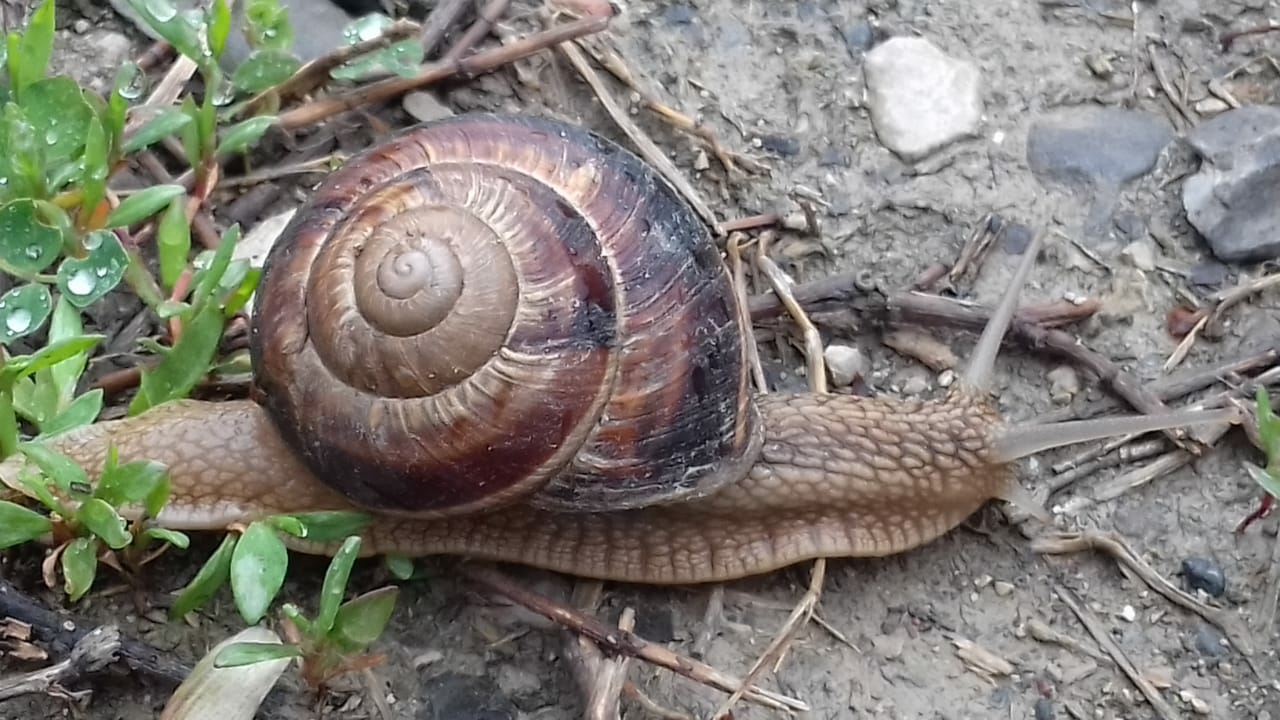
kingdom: Animalia
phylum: Mollusca
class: Gastropoda
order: Stylommatophora
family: Helicidae
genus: Helix
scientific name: Helix lucorum
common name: Turkish snail
